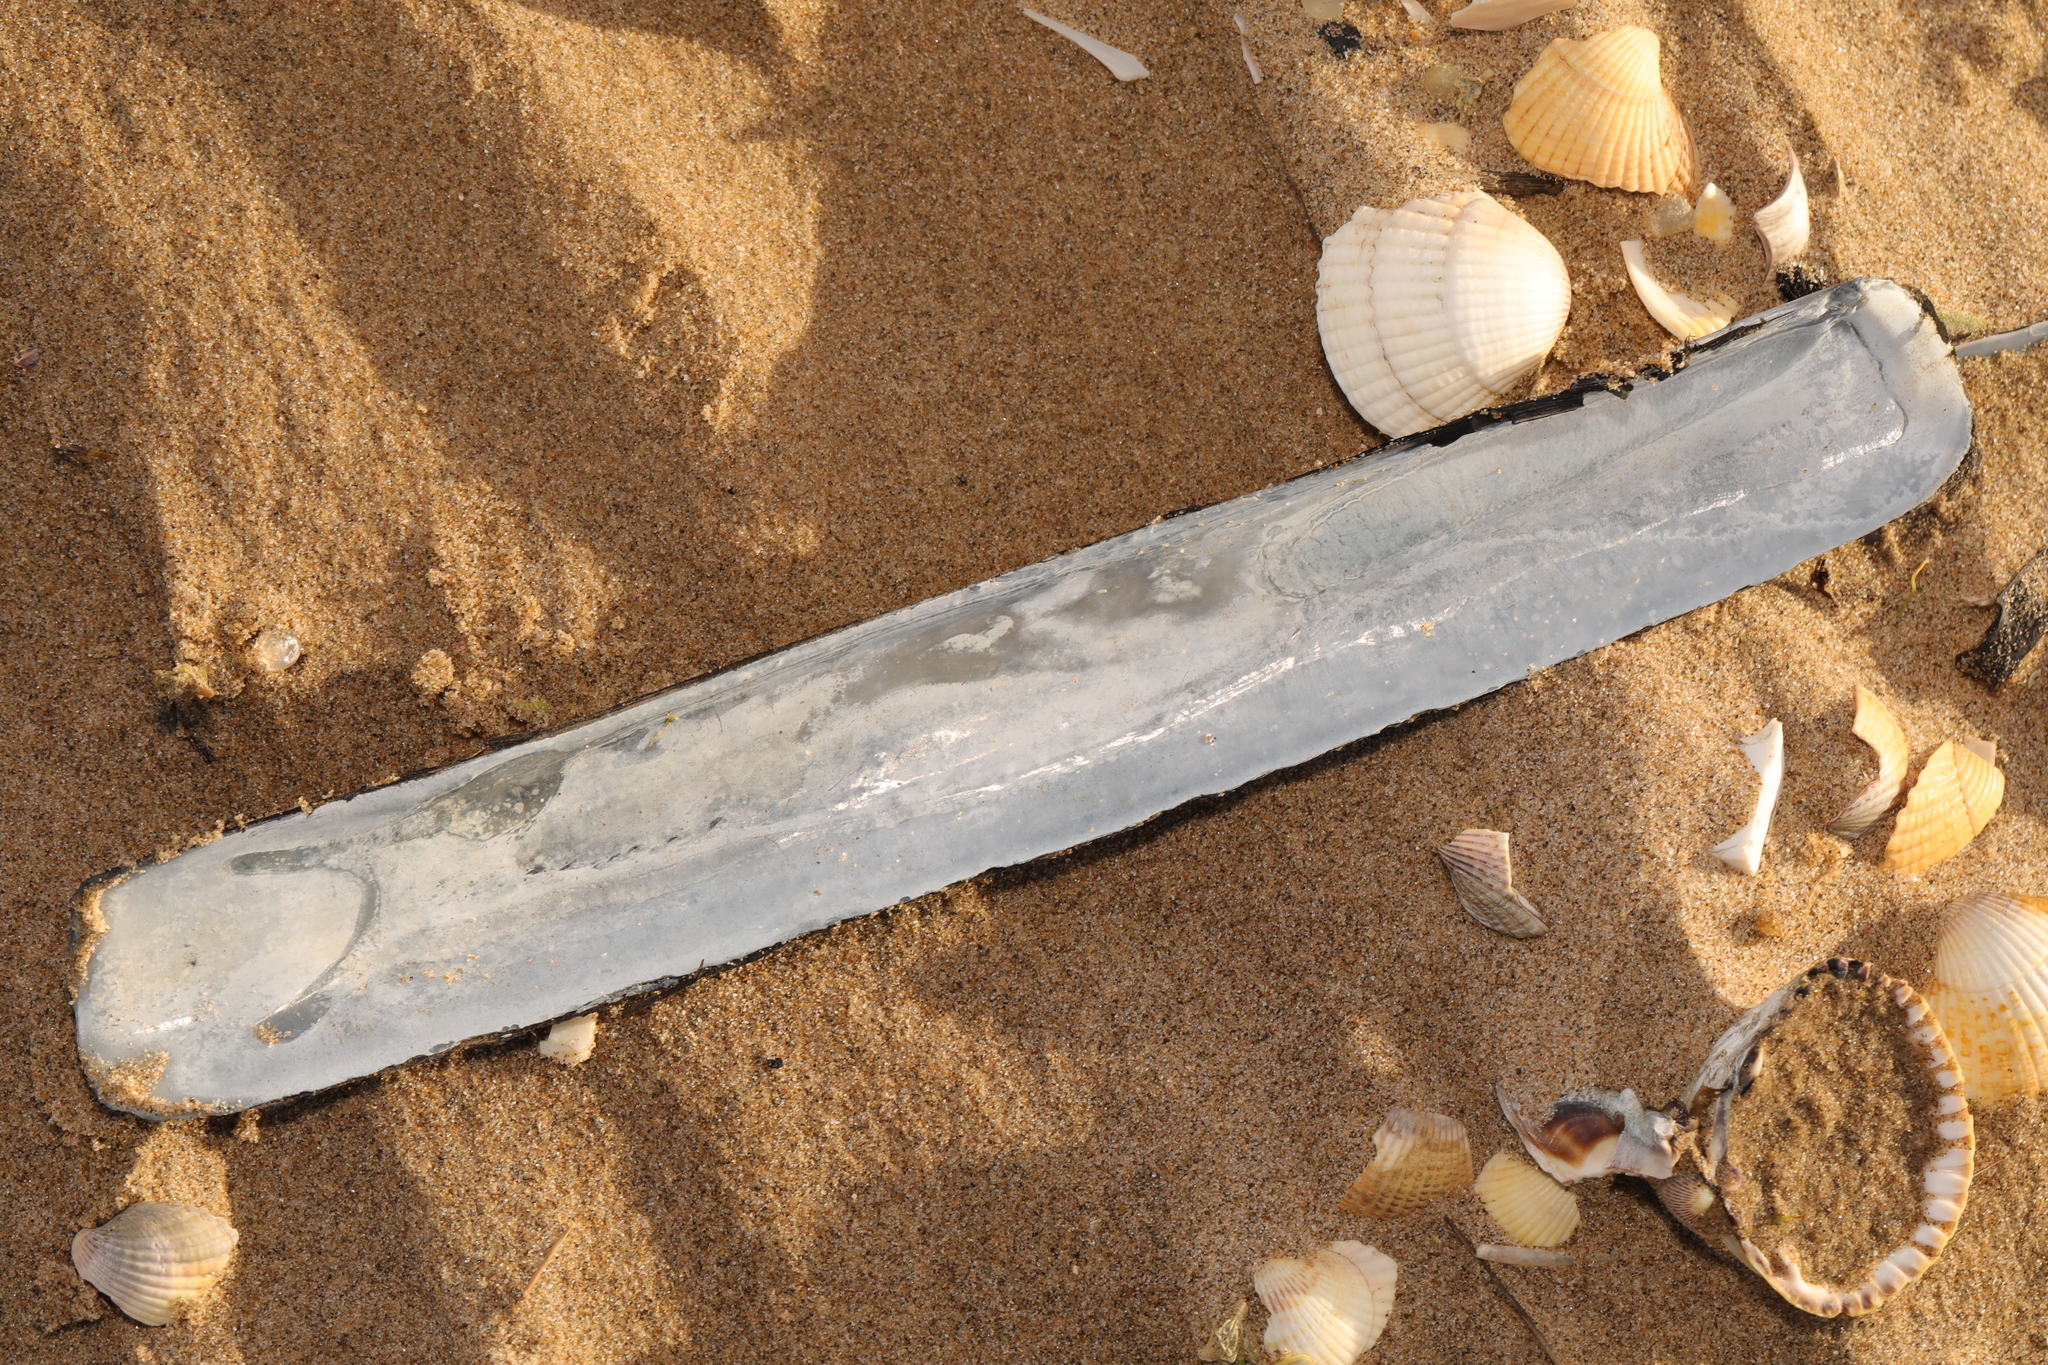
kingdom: Animalia
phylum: Mollusca
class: Bivalvia
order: Adapedonta
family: Pharidae
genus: Ensis
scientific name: Ensis siliqua
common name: Pod razor shell
